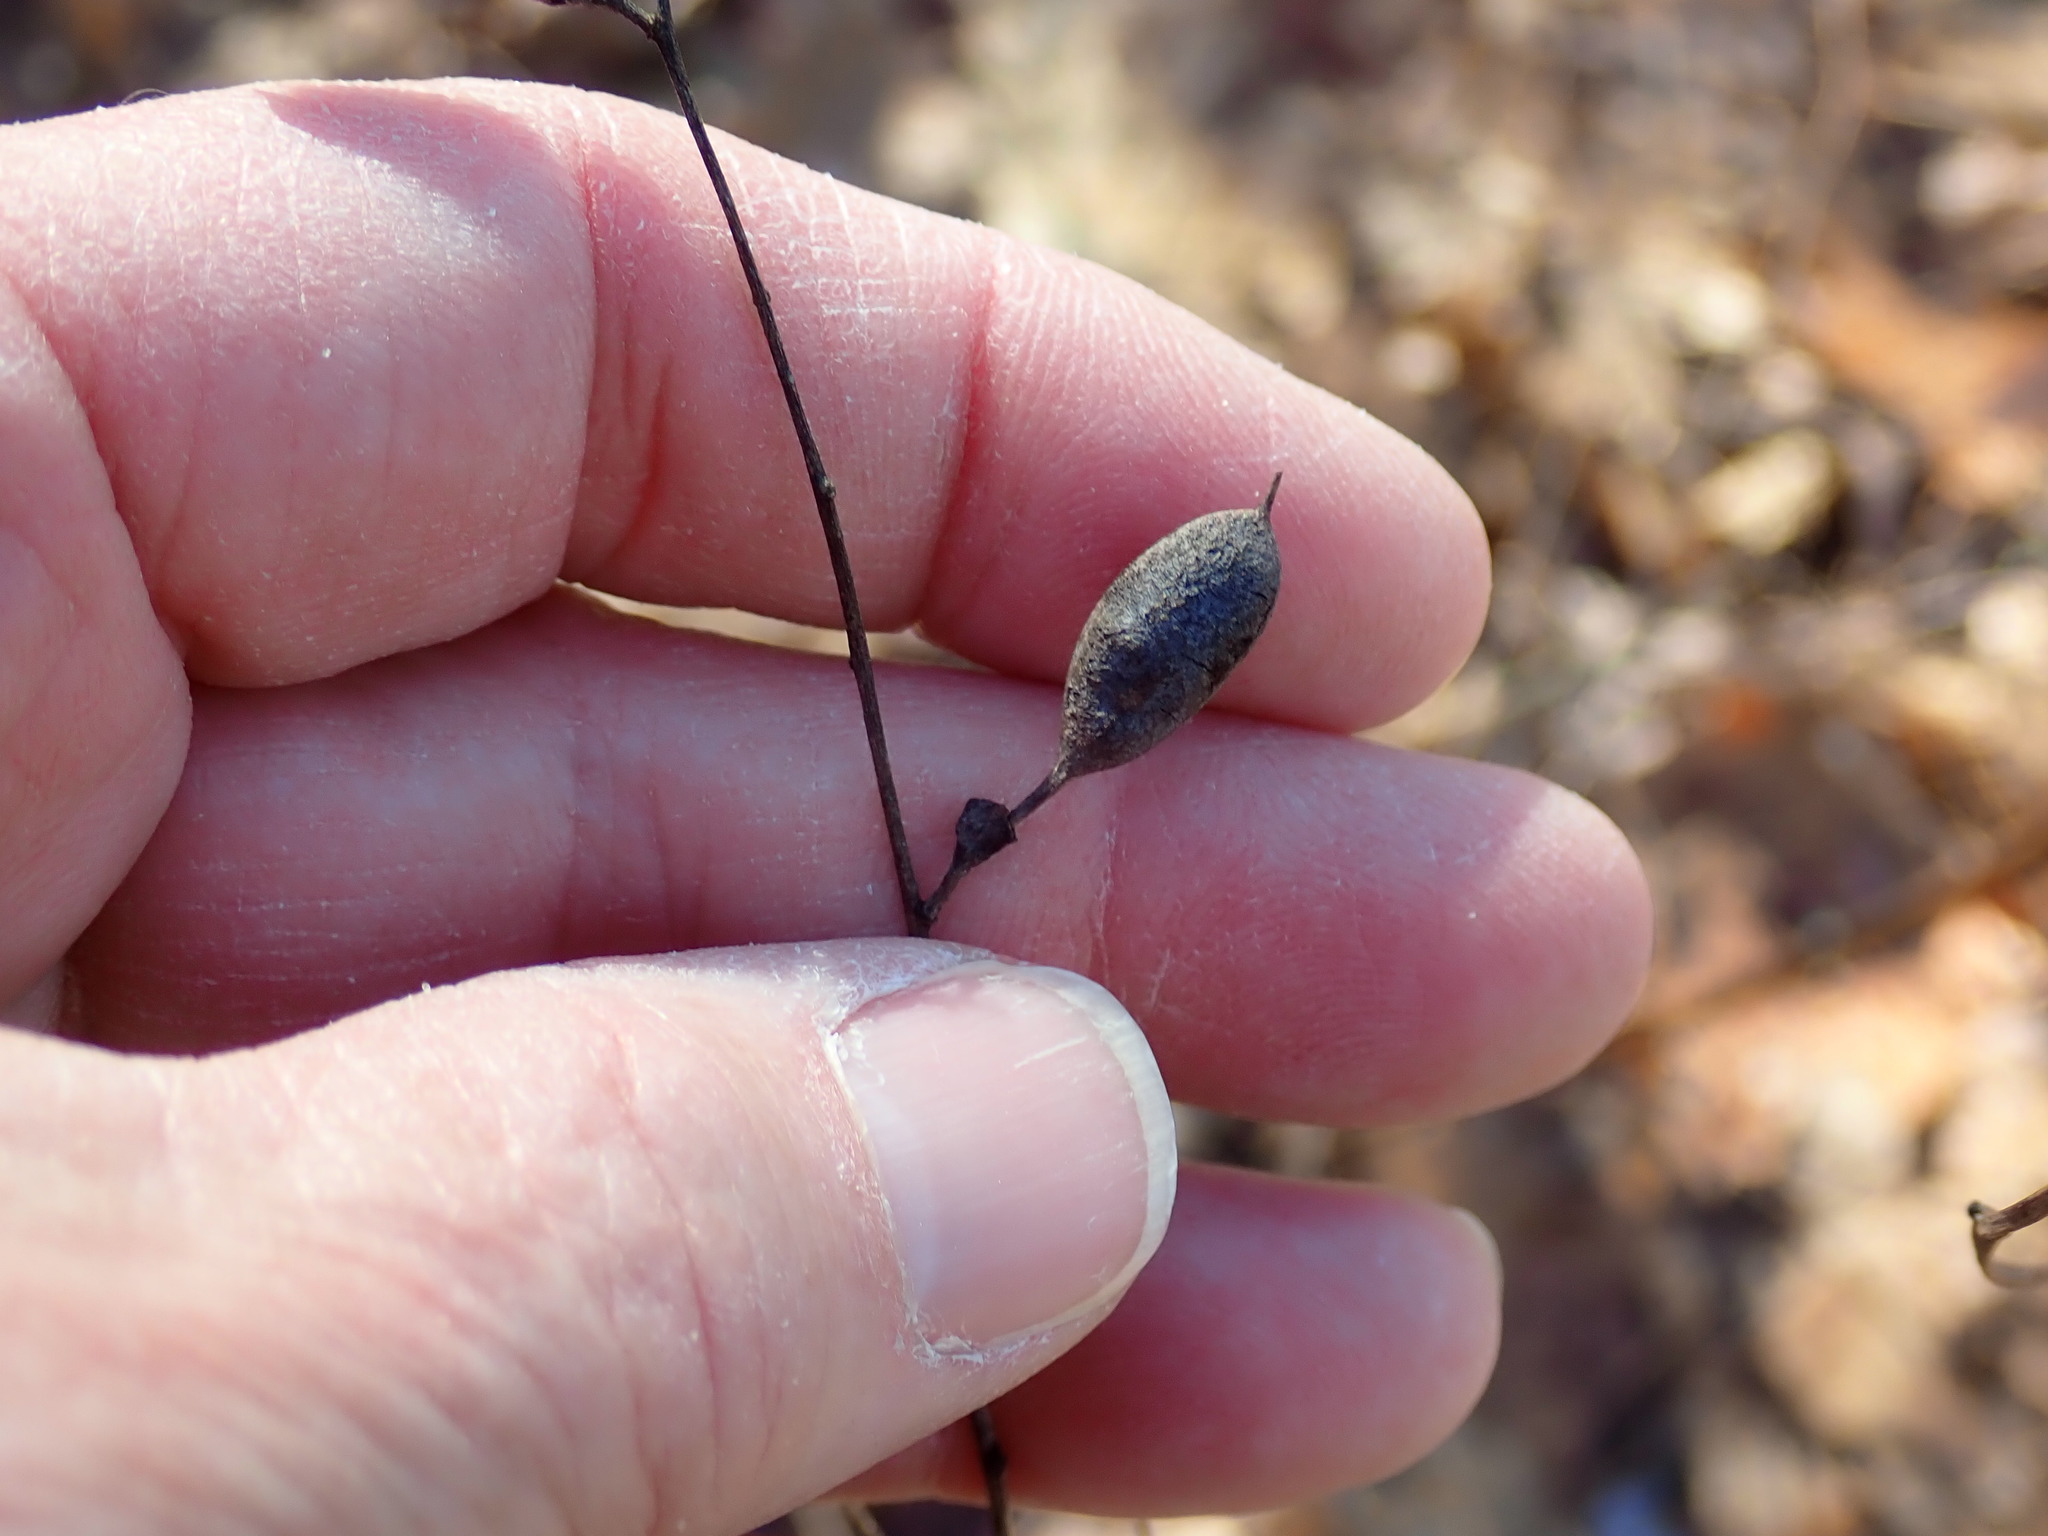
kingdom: Plantae
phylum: Tracheophyta
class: Magnoliopsida
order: Fabales
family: Fabaceae
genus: Baptisia
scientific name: Baptisia tinctoria
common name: Wild indigo
